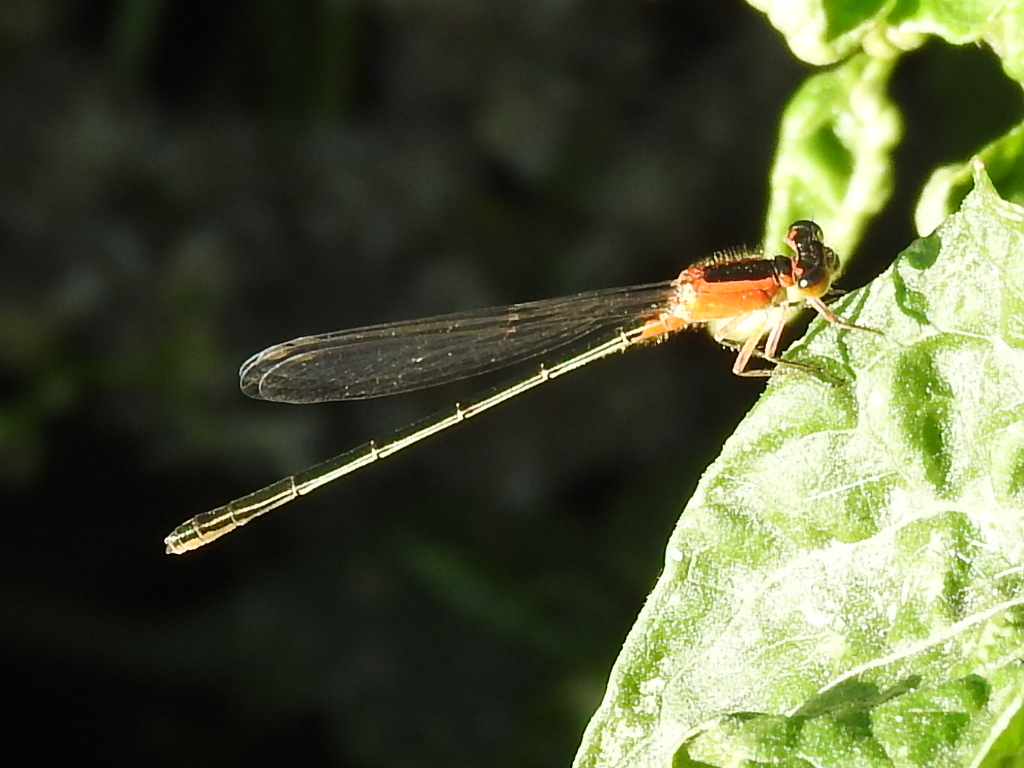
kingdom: Animalia
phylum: Arthropoda
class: Insecta
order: Odonata
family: Coenagrionidae
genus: Ischnura
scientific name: Ischnura ramburii
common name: Rambur's forktail
